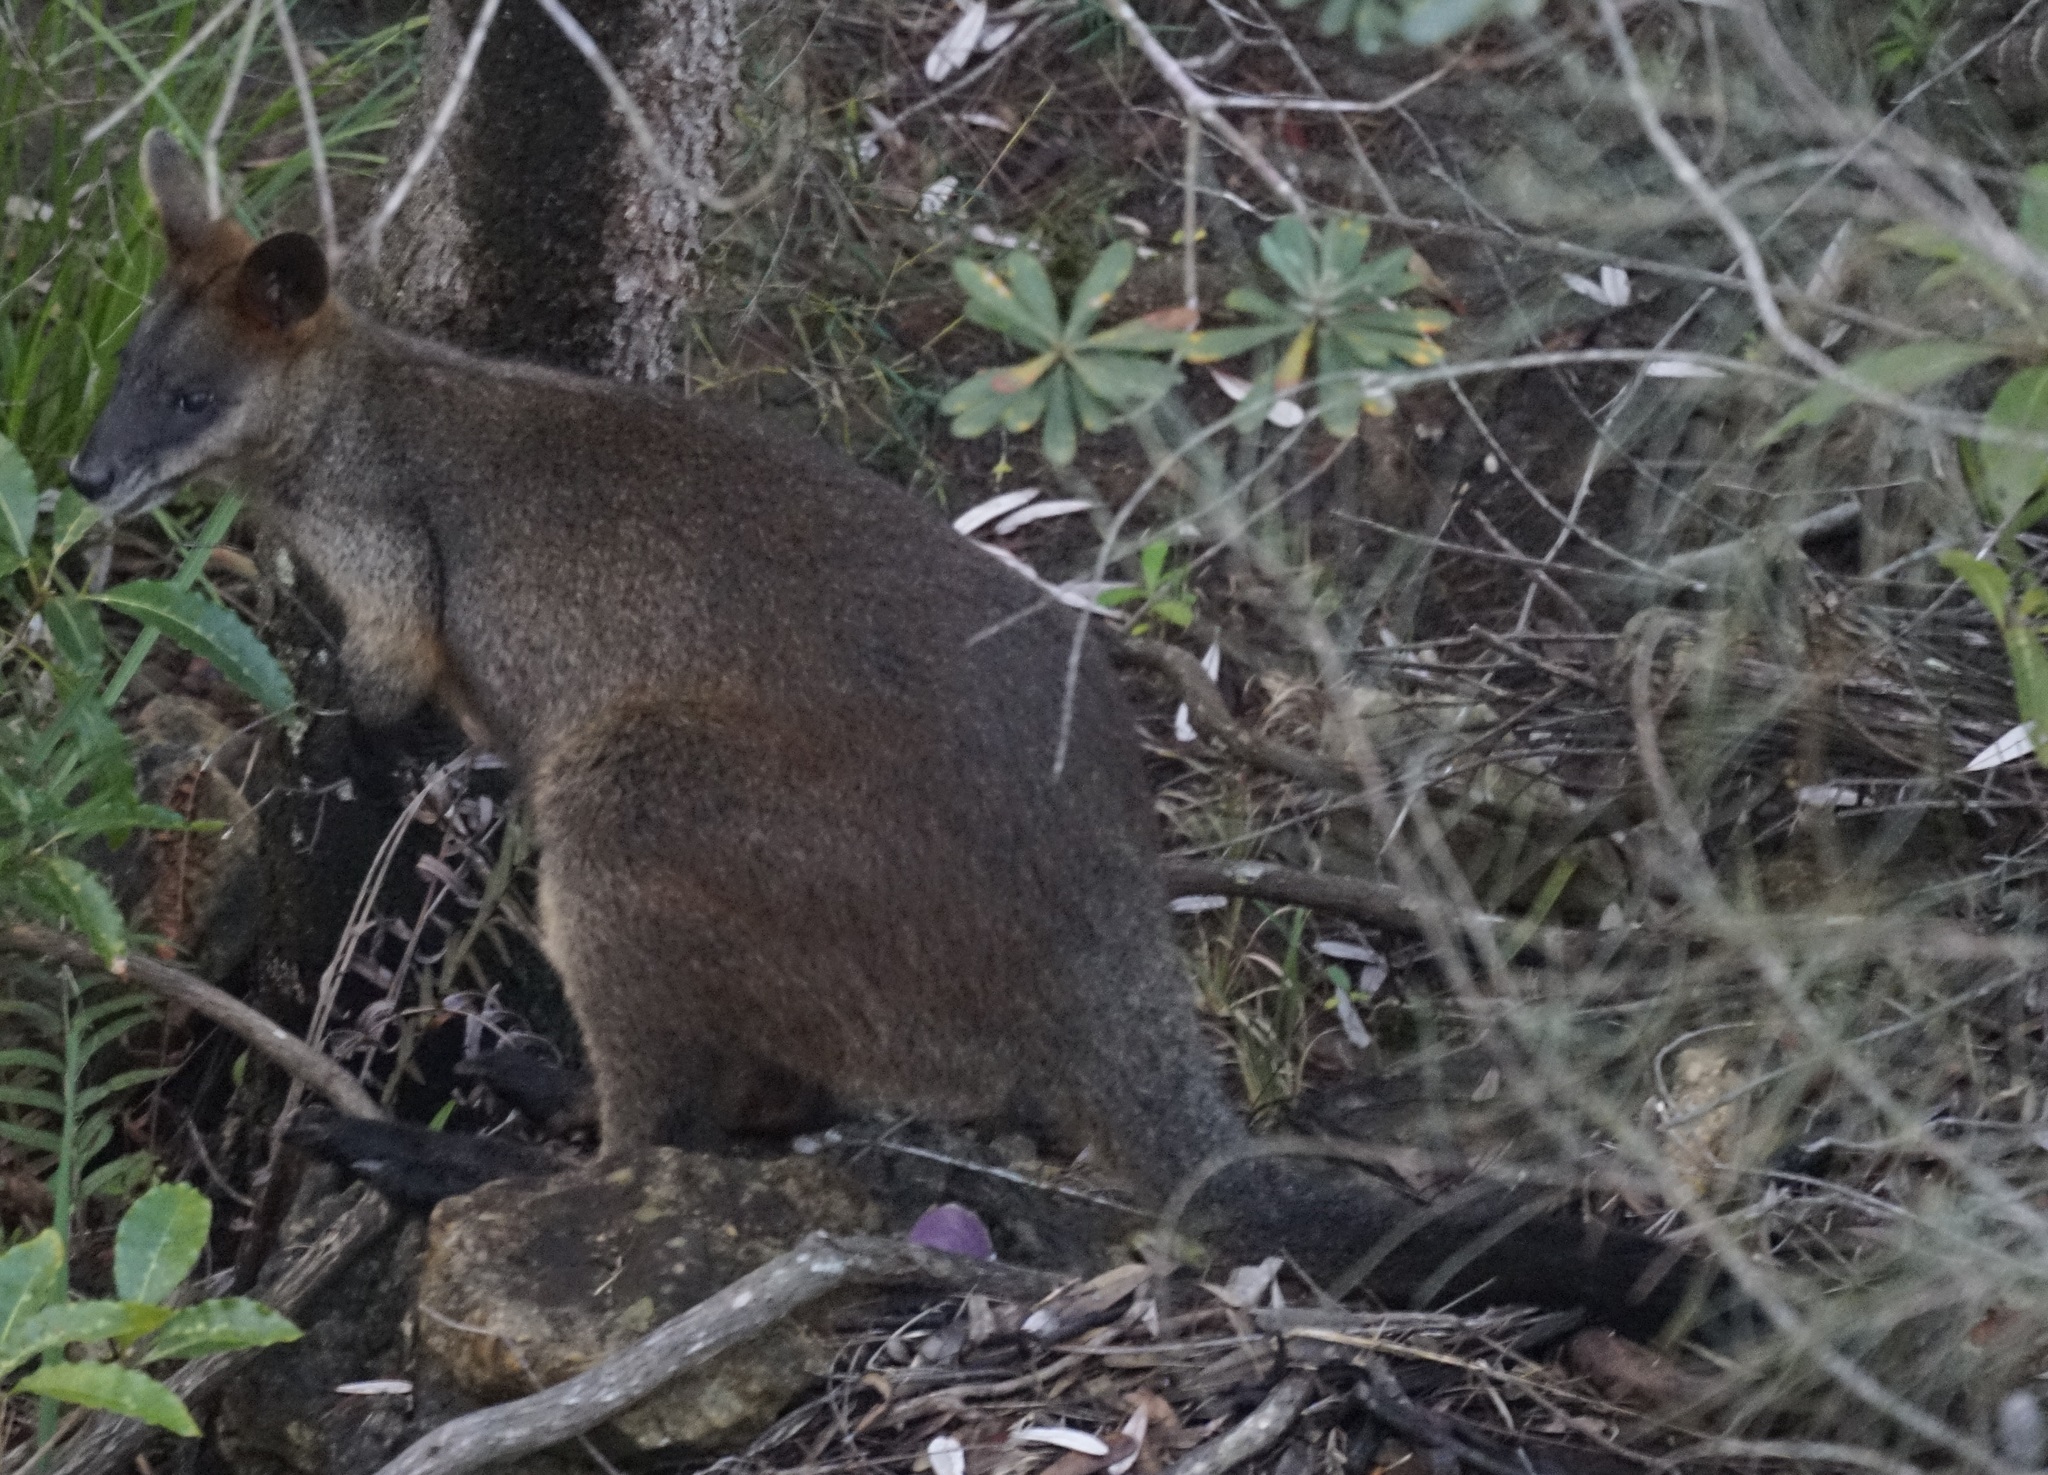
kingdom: Animalia
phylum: Chordata
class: Mammalia
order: Diprotodontia
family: Macropodidae
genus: Wallabia
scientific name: Wallabia bicolor
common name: Swamp wallaby
